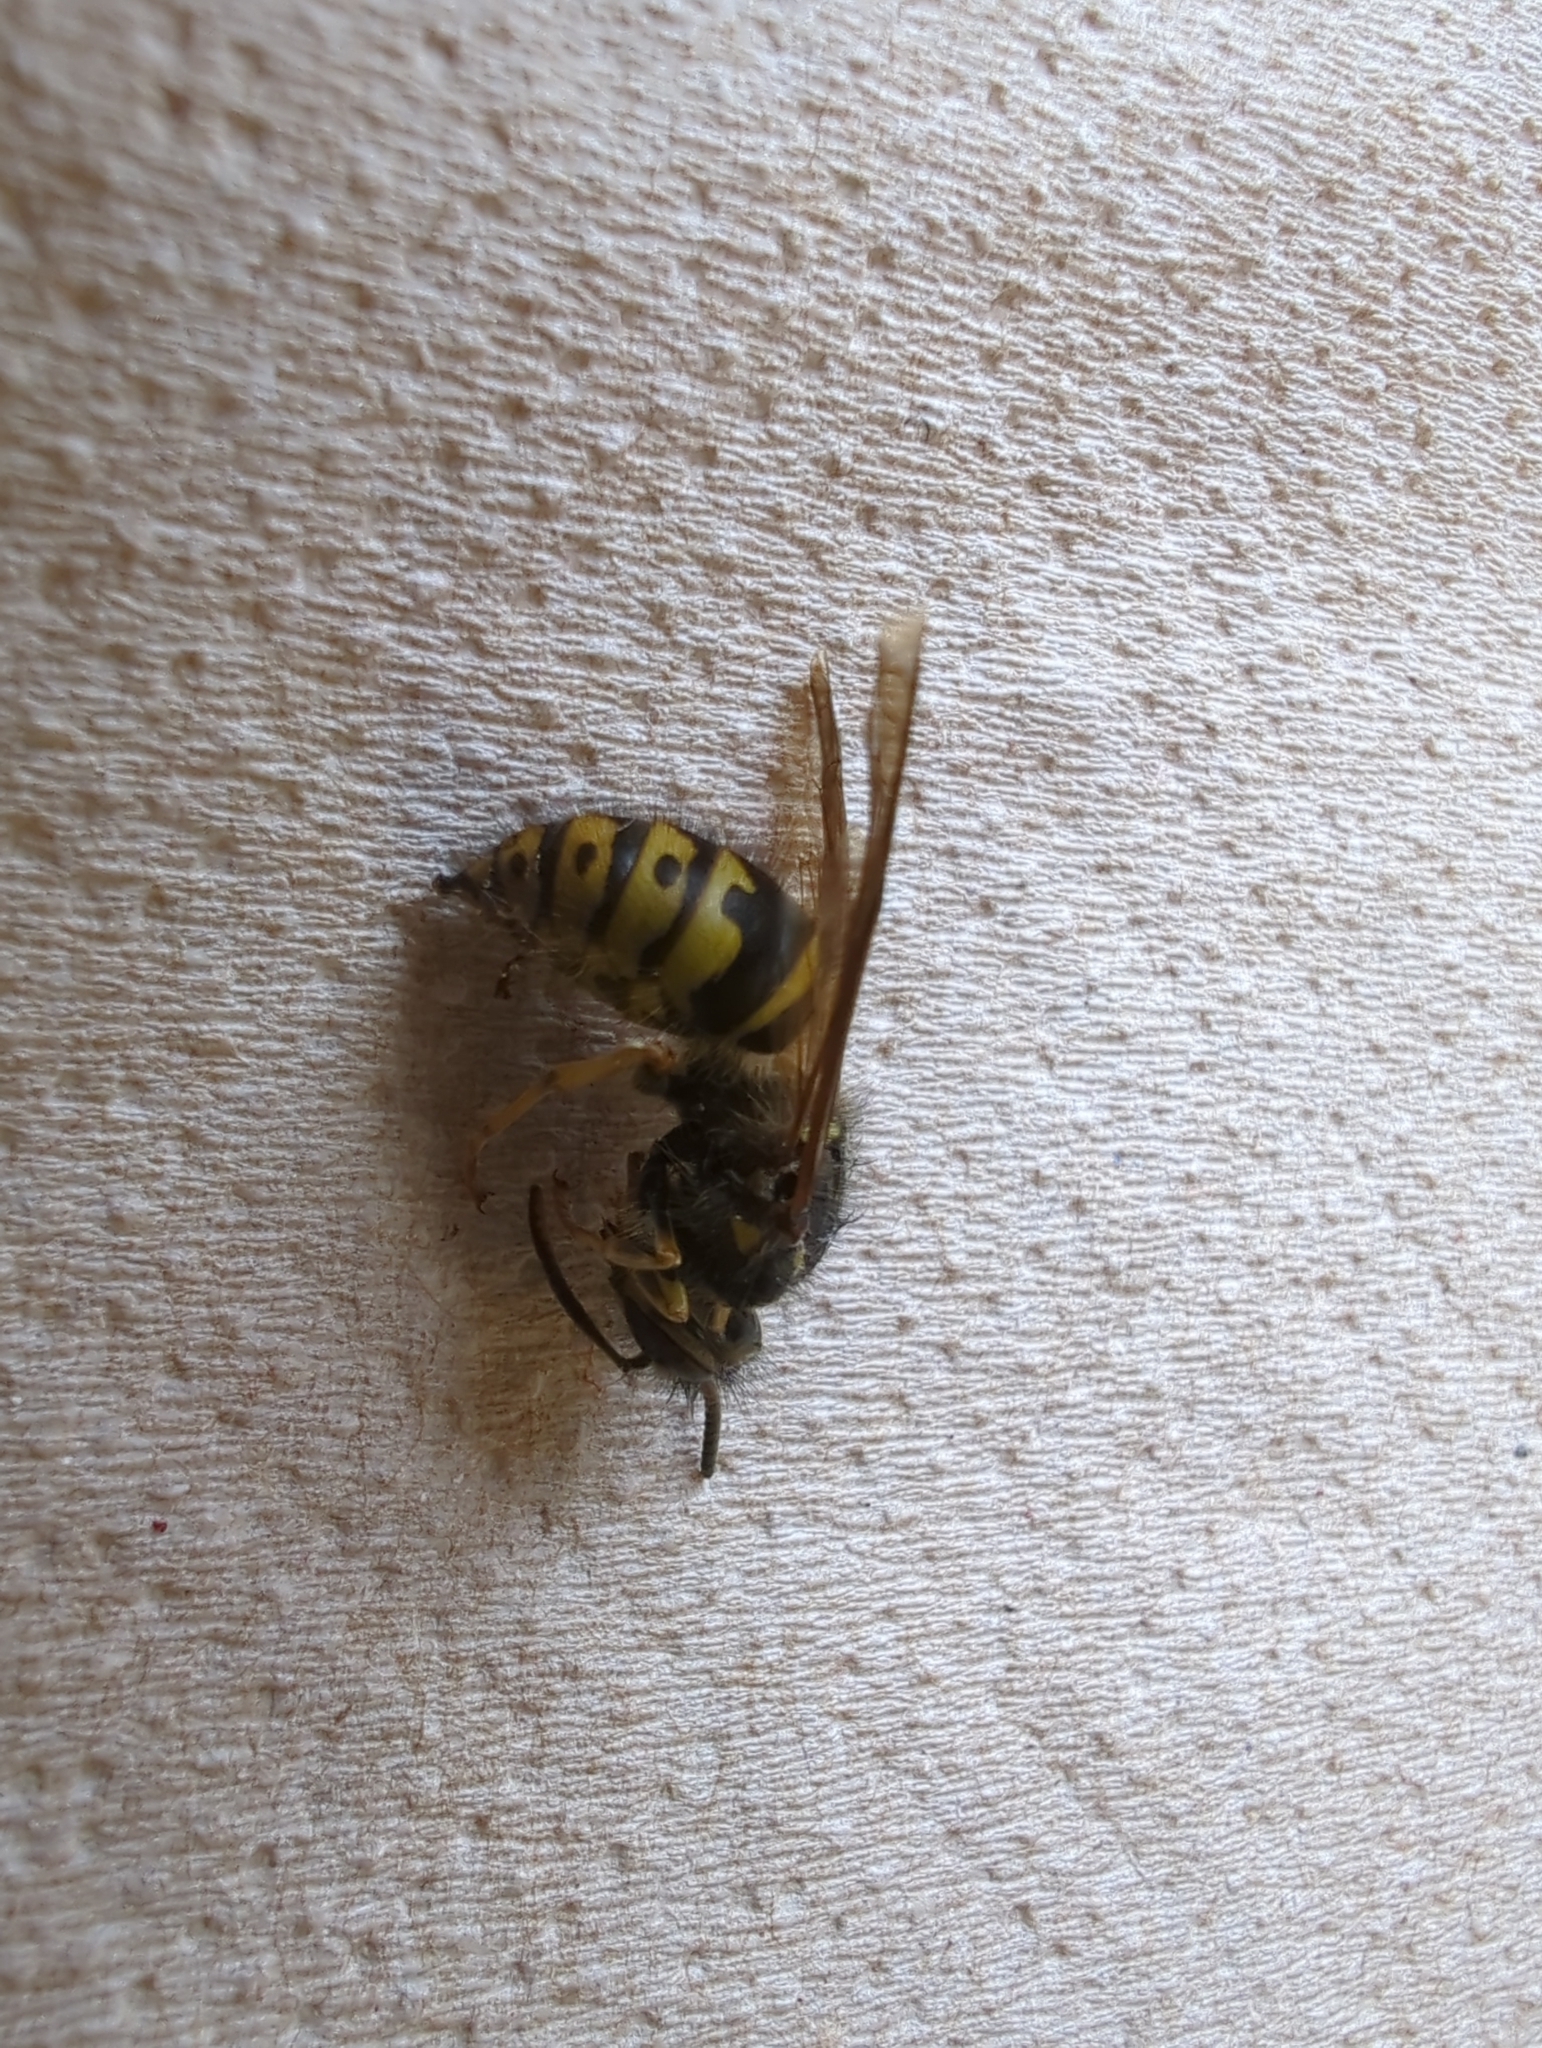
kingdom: Animalia
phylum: Arthropoda
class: Insecta
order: Hymenoptera
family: Vespidae
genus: Dolichovespula
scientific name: Dolichovespula arenaria
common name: Aerial yellowjacket
